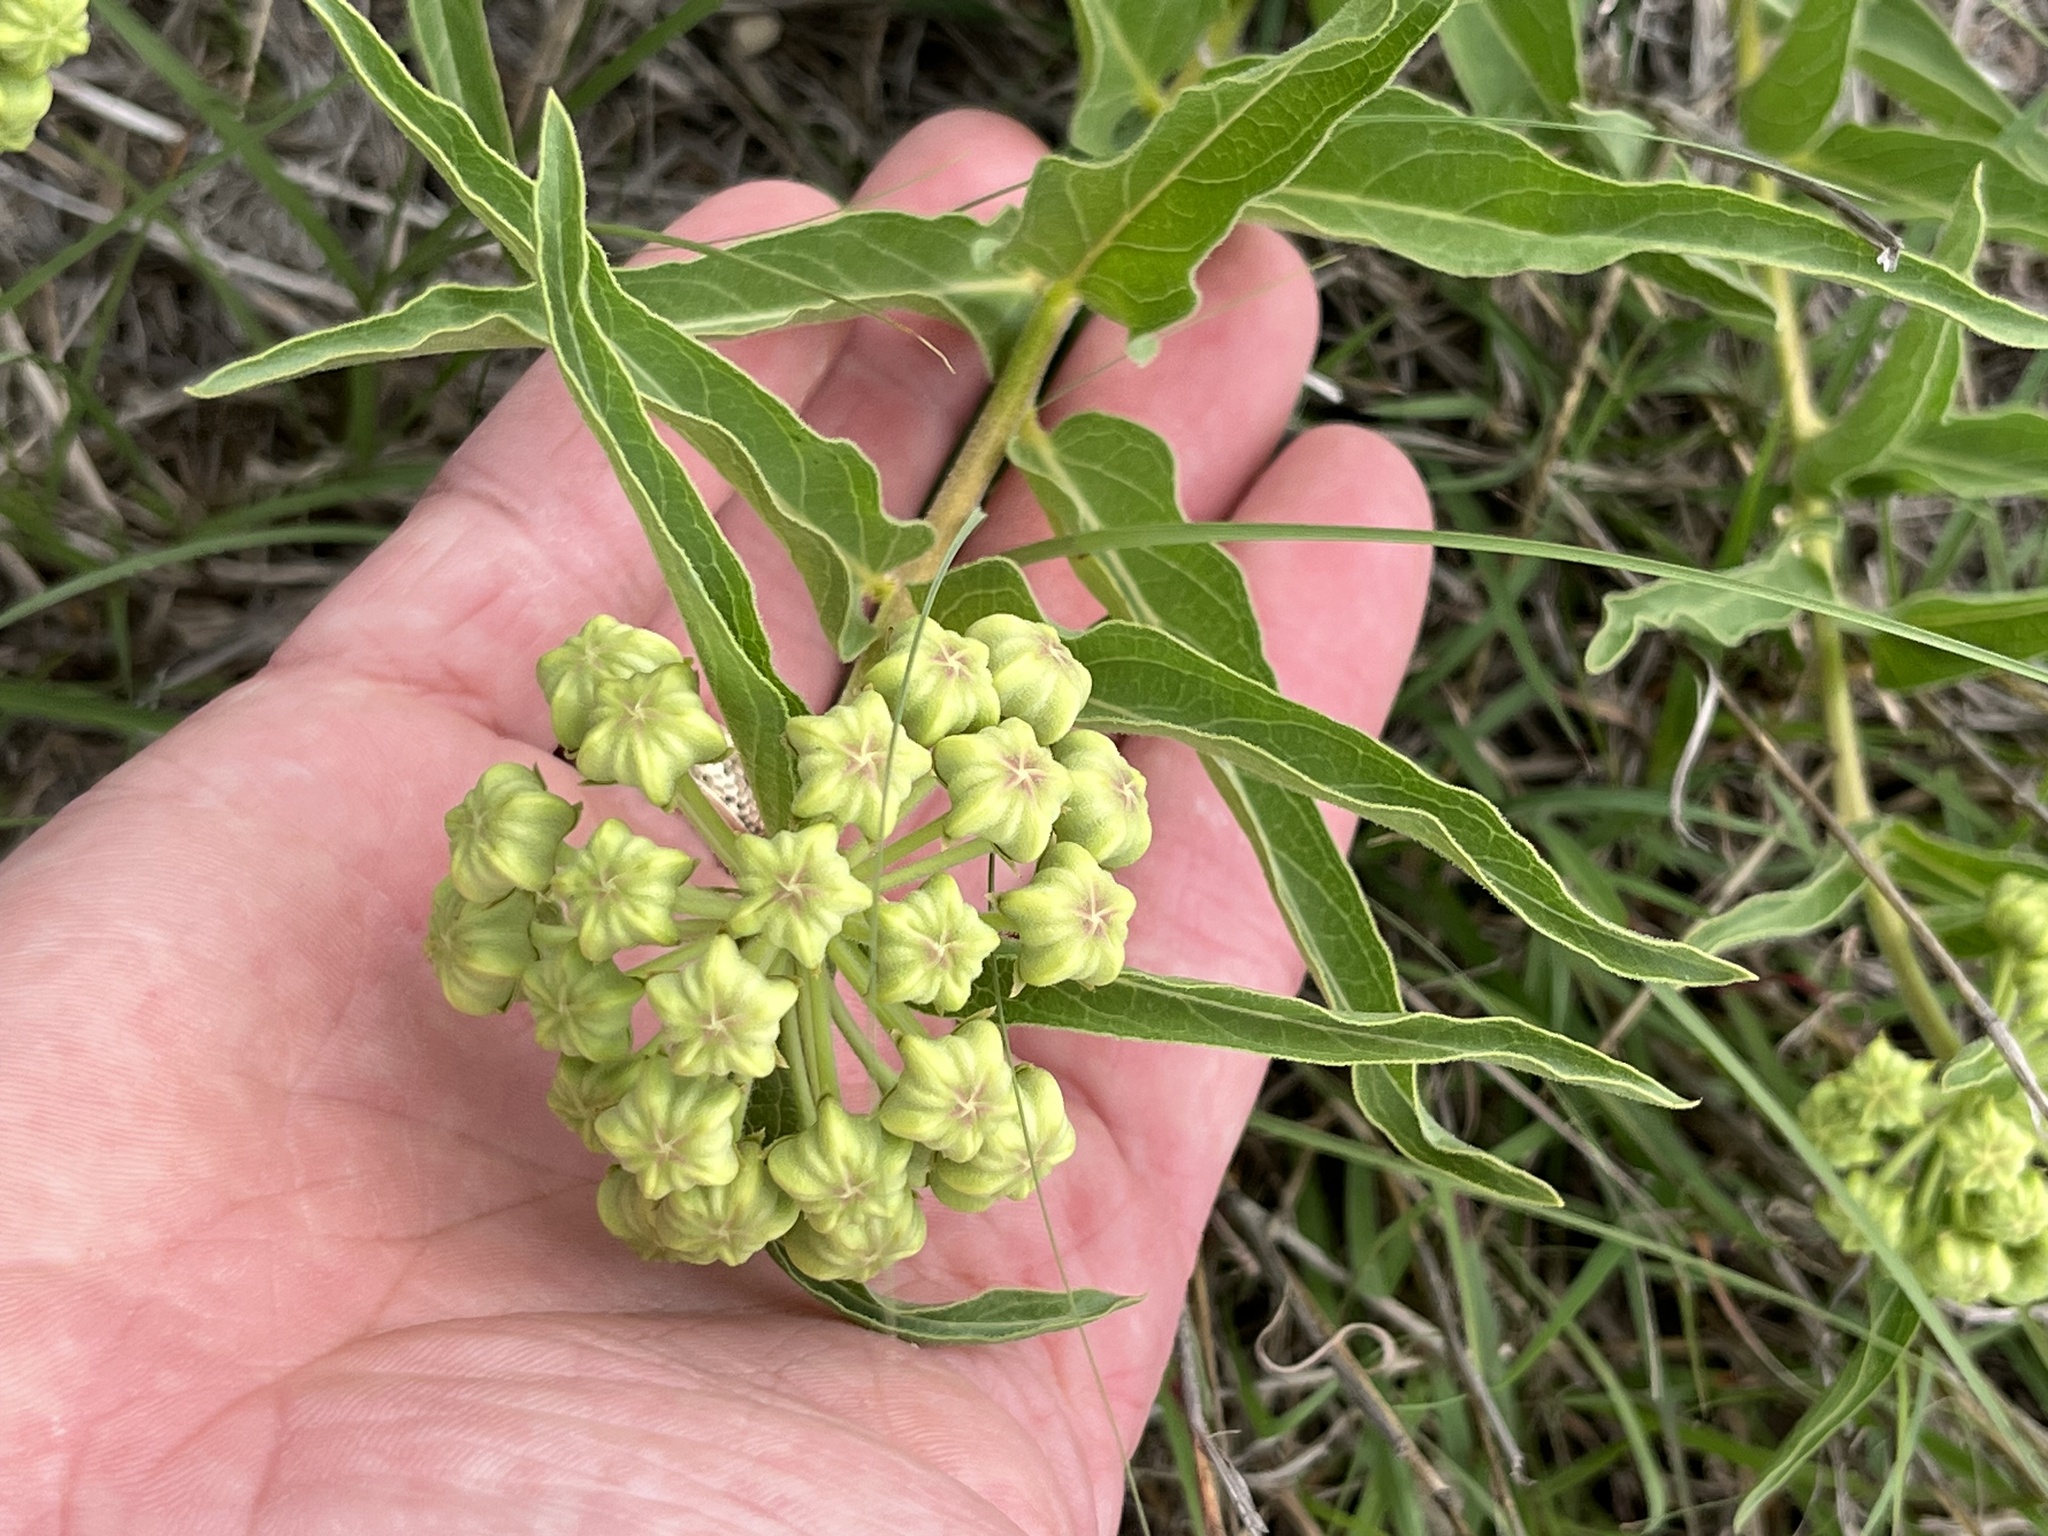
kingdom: Plantae
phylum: Tracheophyta
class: Magnoliopsida
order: Gentianales
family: Apocynaceae
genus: Asclepias
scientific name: Asclepias asperula
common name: Antelope horns
